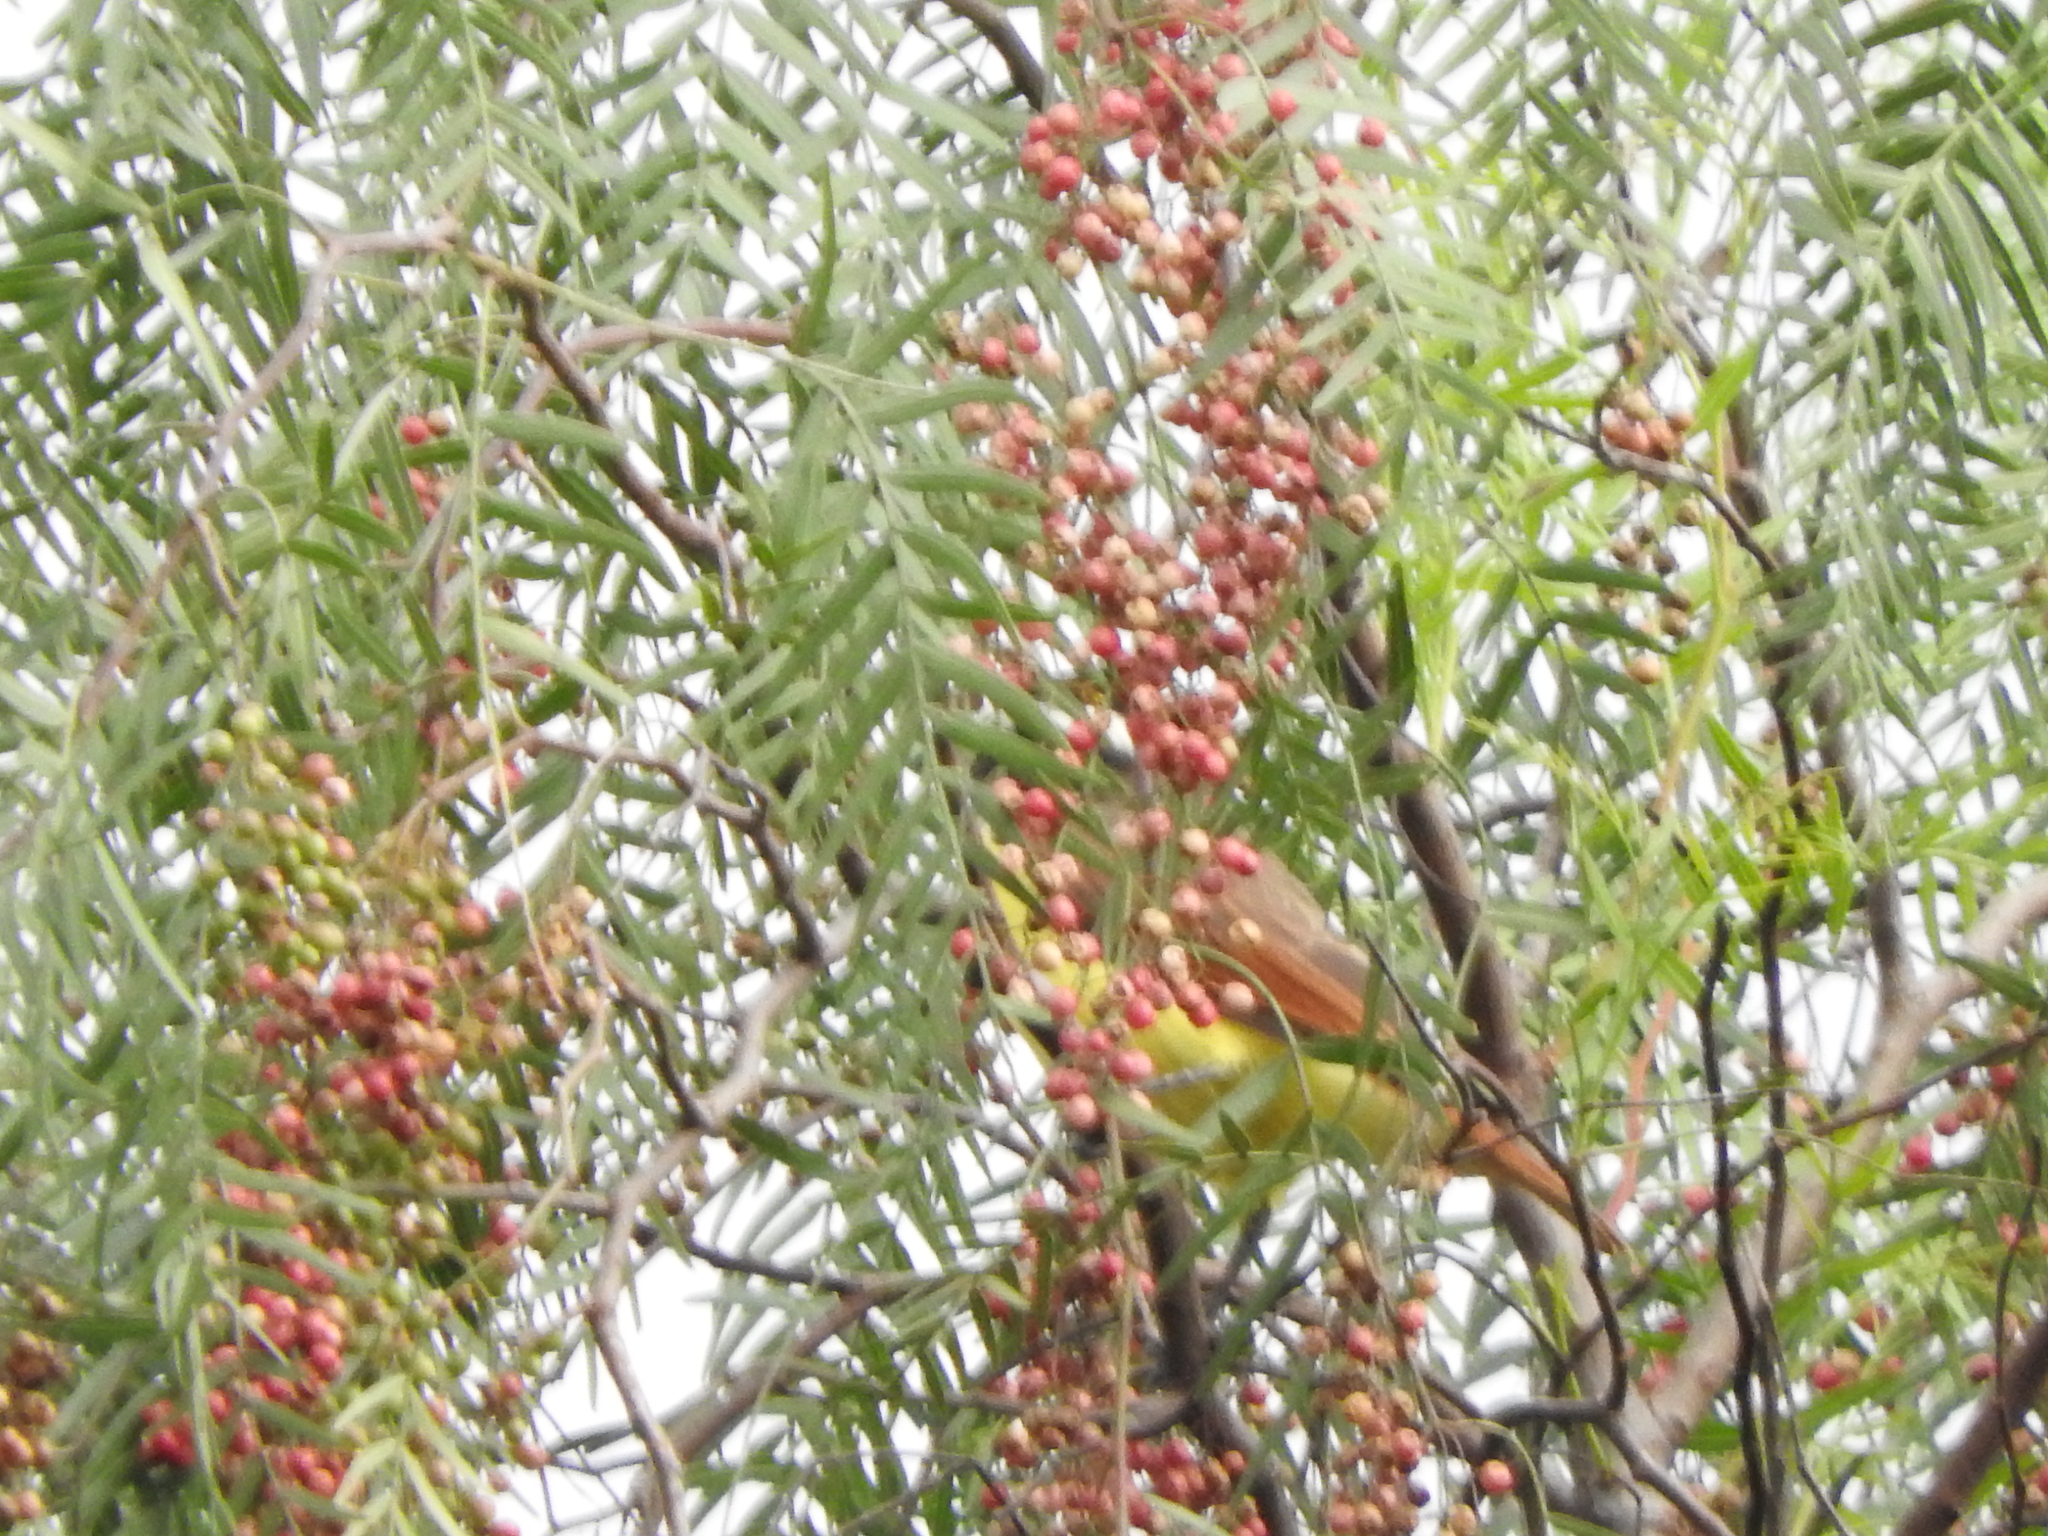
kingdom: Animalia
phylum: Chordata
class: Aves
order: Passeriformes
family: Tyrannidae
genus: Pitangus
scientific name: Pitangus sulphuratus
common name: Great kiskadee
